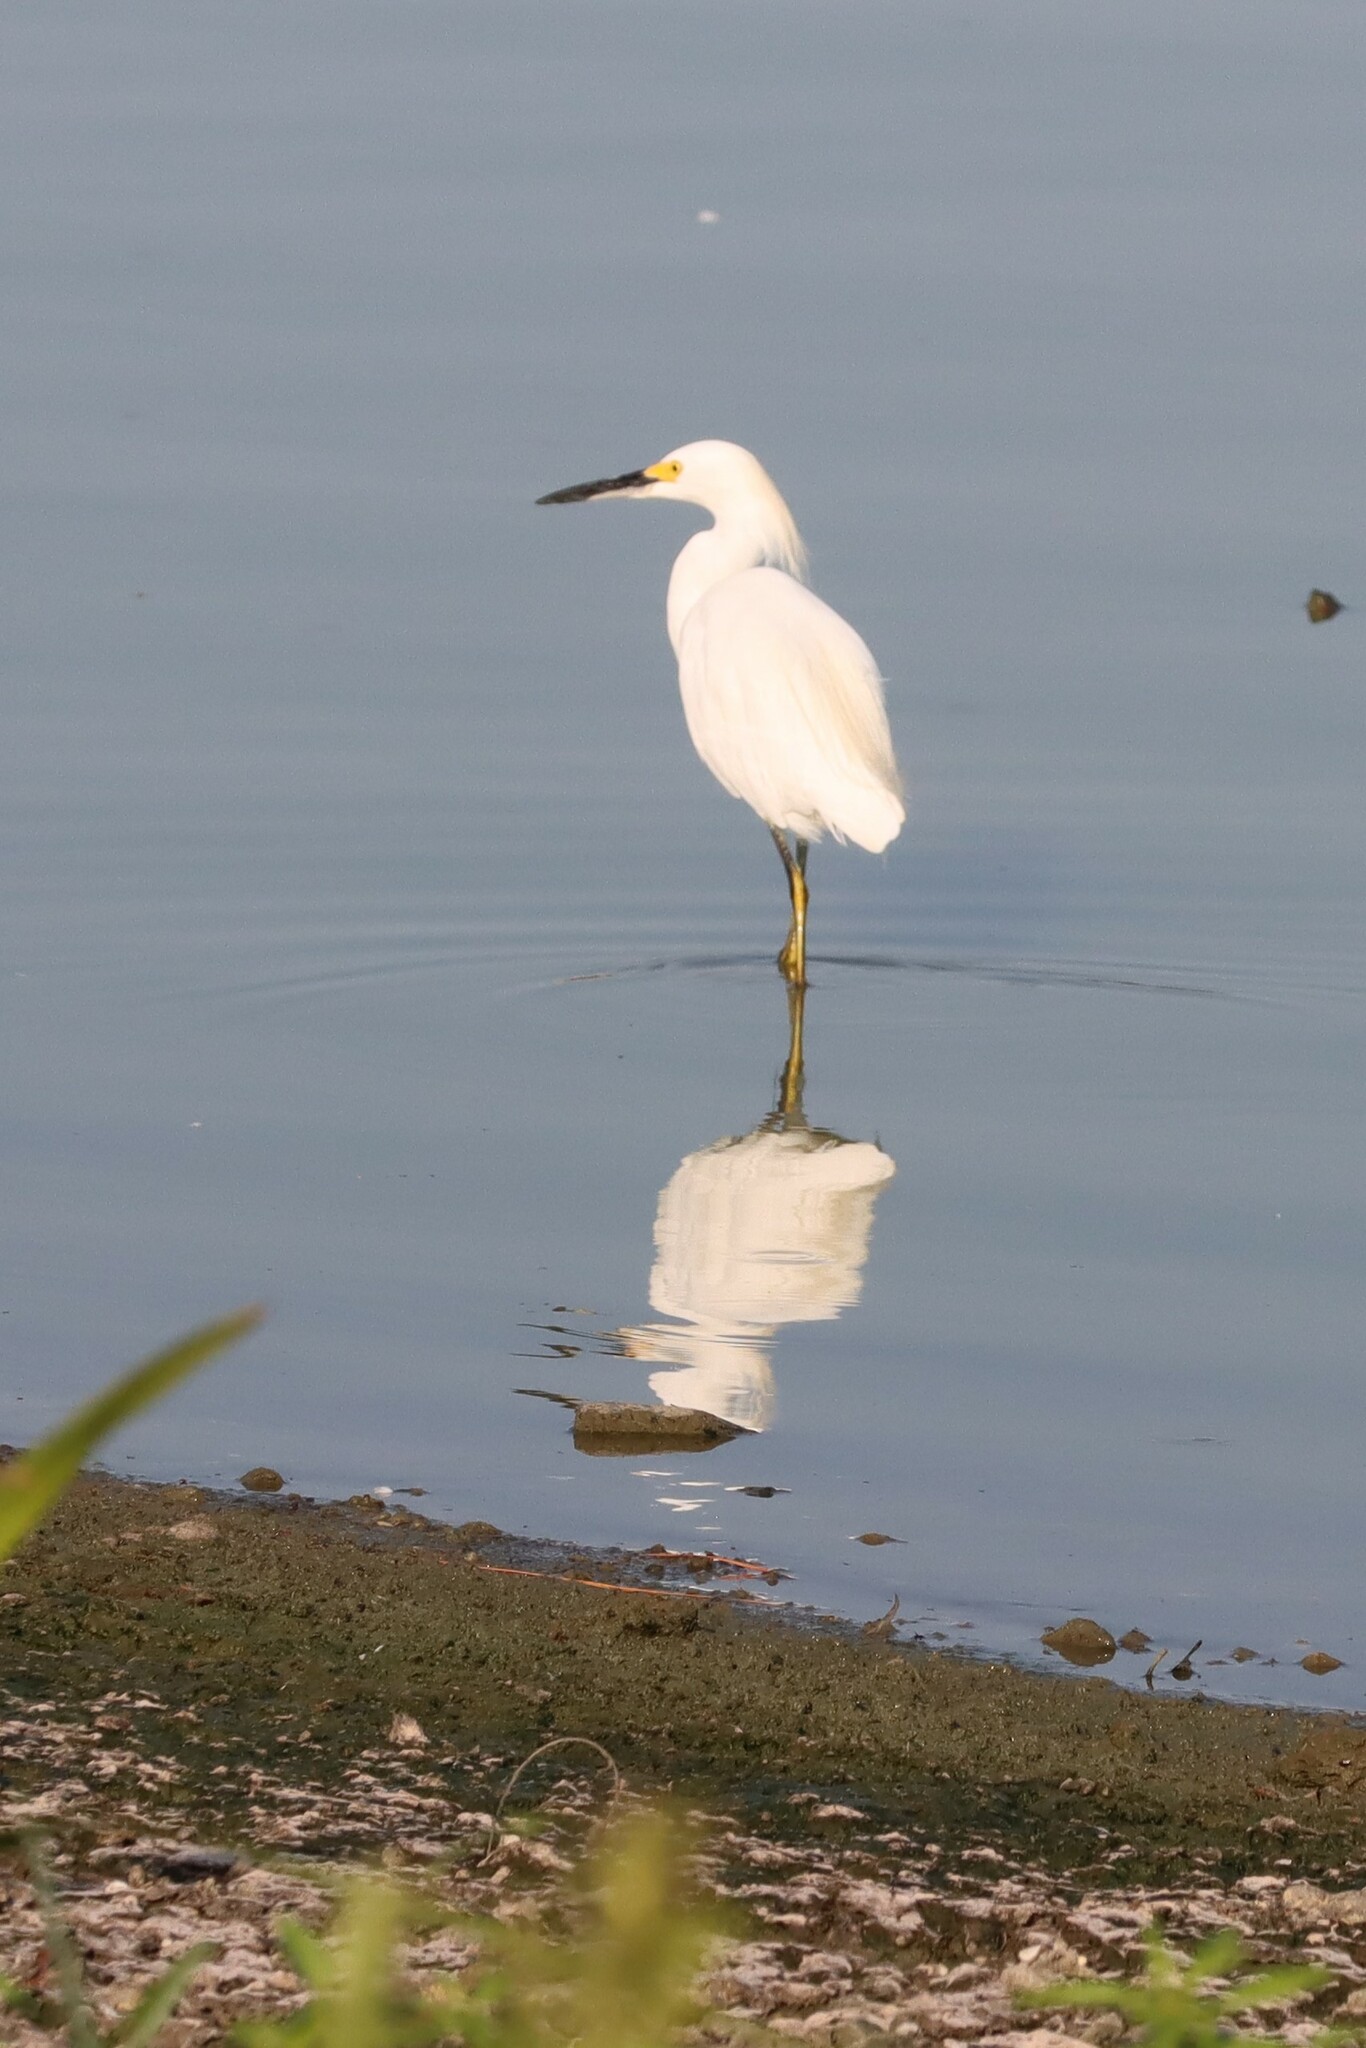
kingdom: Animalia
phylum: Chordata
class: Aves
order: Pelecaniformes
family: Ardeidae
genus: Egretta
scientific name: Egretta thula
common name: Snowy egret
